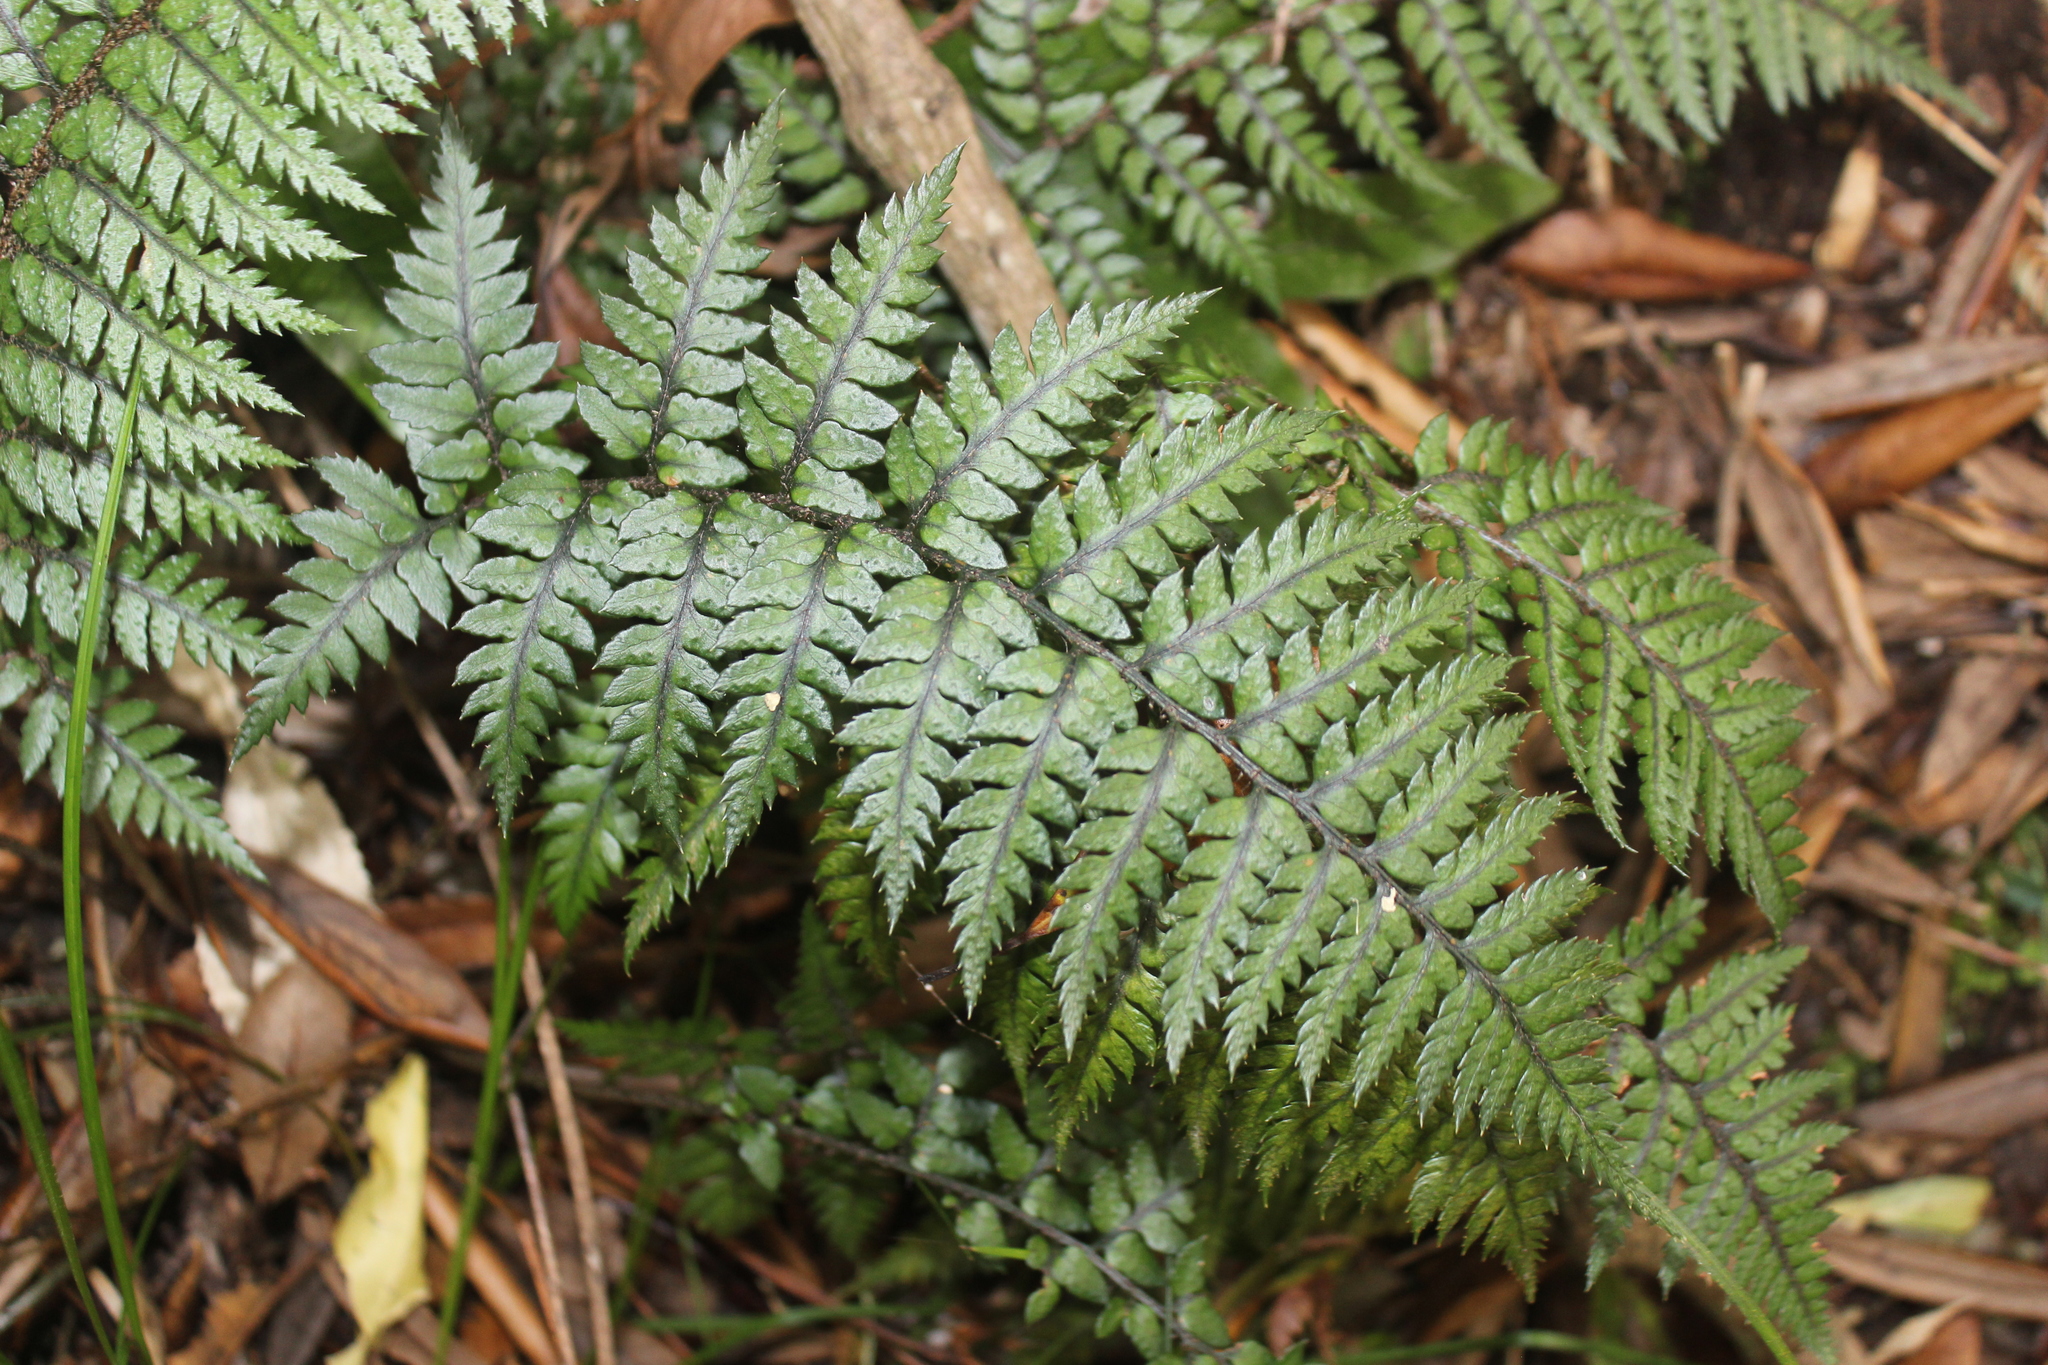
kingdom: Plantae
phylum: Tracheophyta
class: Polypodiopsida
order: Polypodiales
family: Dryopteridaceae
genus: Polystichum
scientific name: Polystichum neozelandicum
